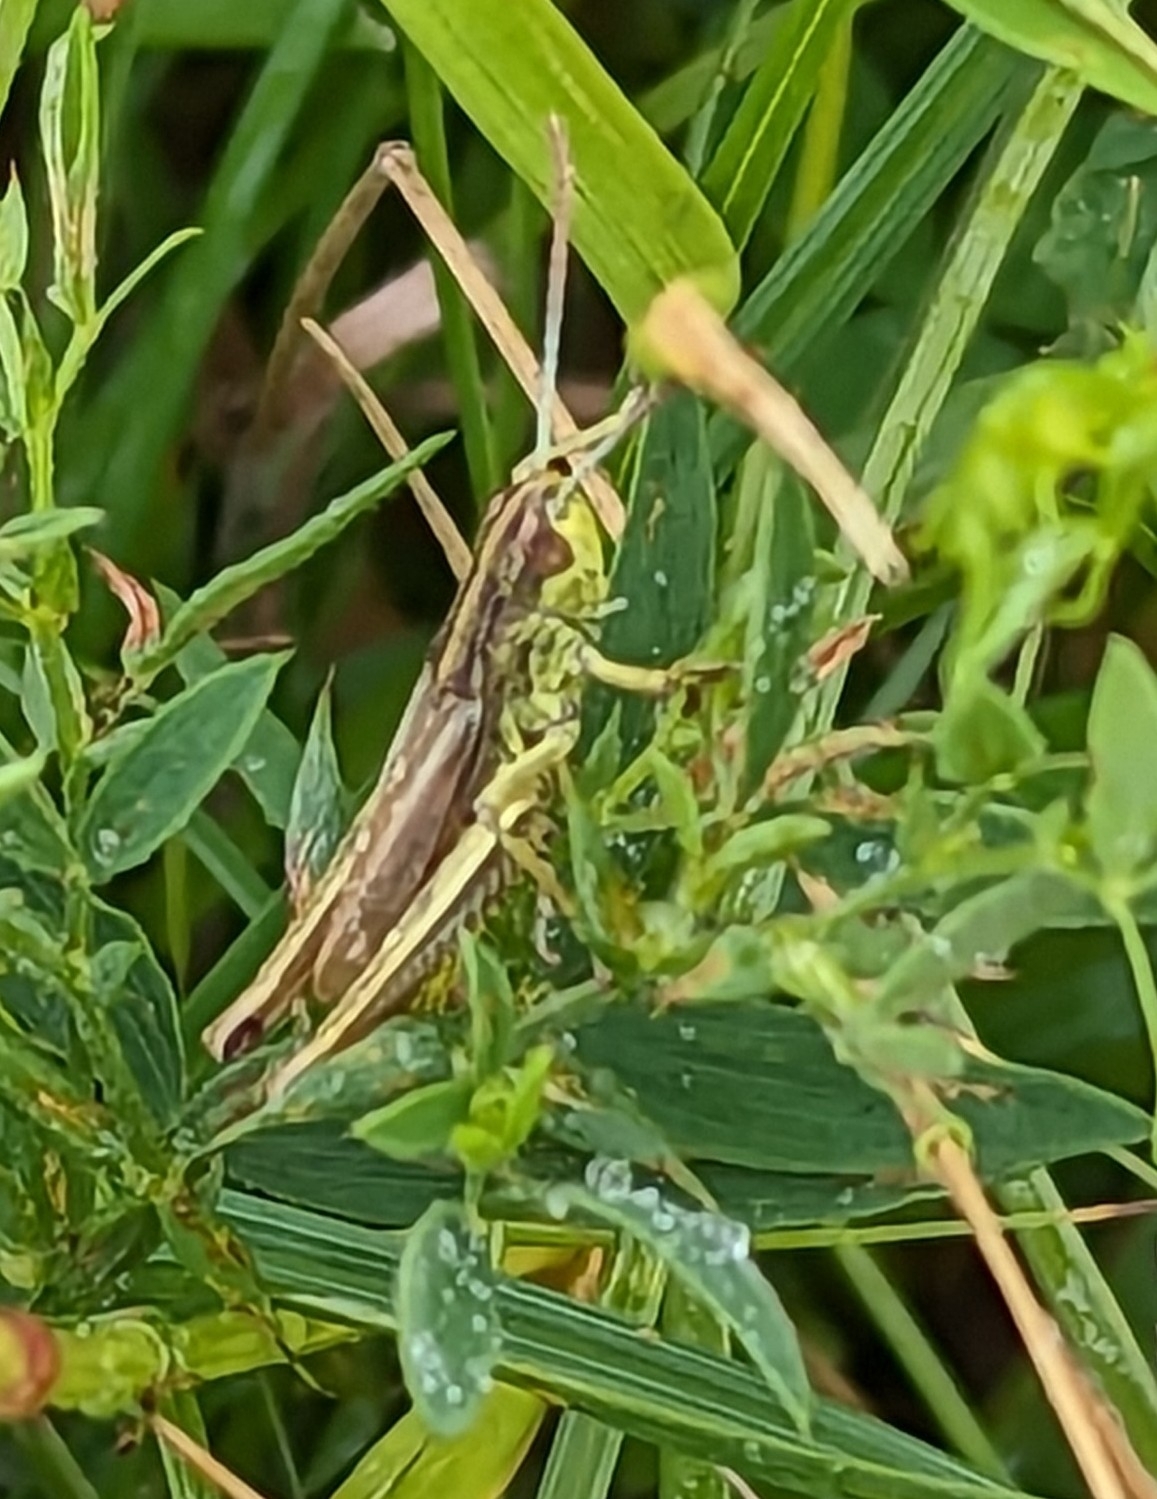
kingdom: Animalia
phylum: Arthropoda
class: Insecta
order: Orthoptera
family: Acrididae
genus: Pseudochorthippus
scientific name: Pseudochorthippus parallelus
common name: Meadow grasshopper
